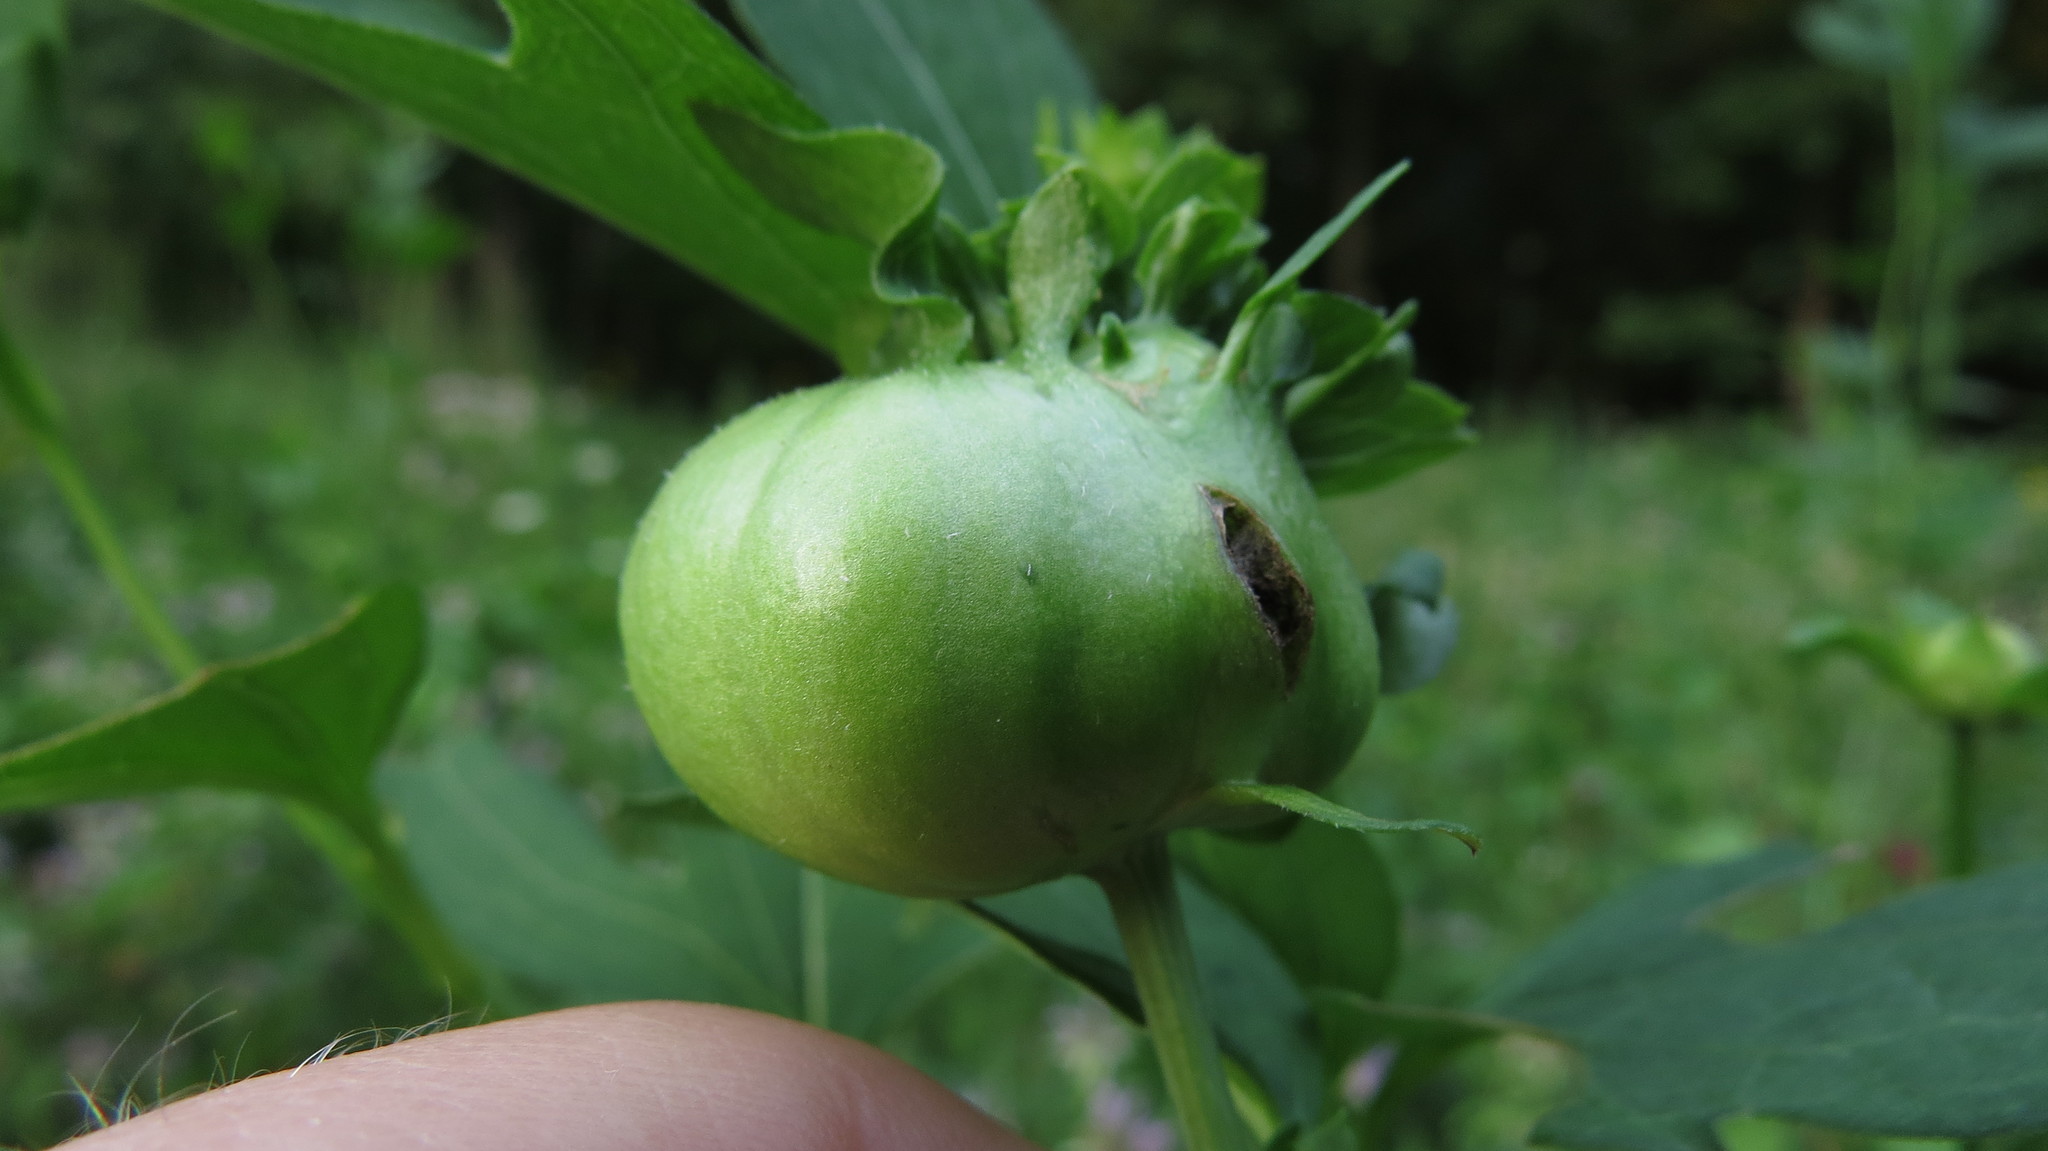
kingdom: Animalia
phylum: Arthropoda
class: Insecta
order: Diptera
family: Cecidomyiidae
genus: Asphondylia
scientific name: Asphondylia rudbeckiaeconspicua
